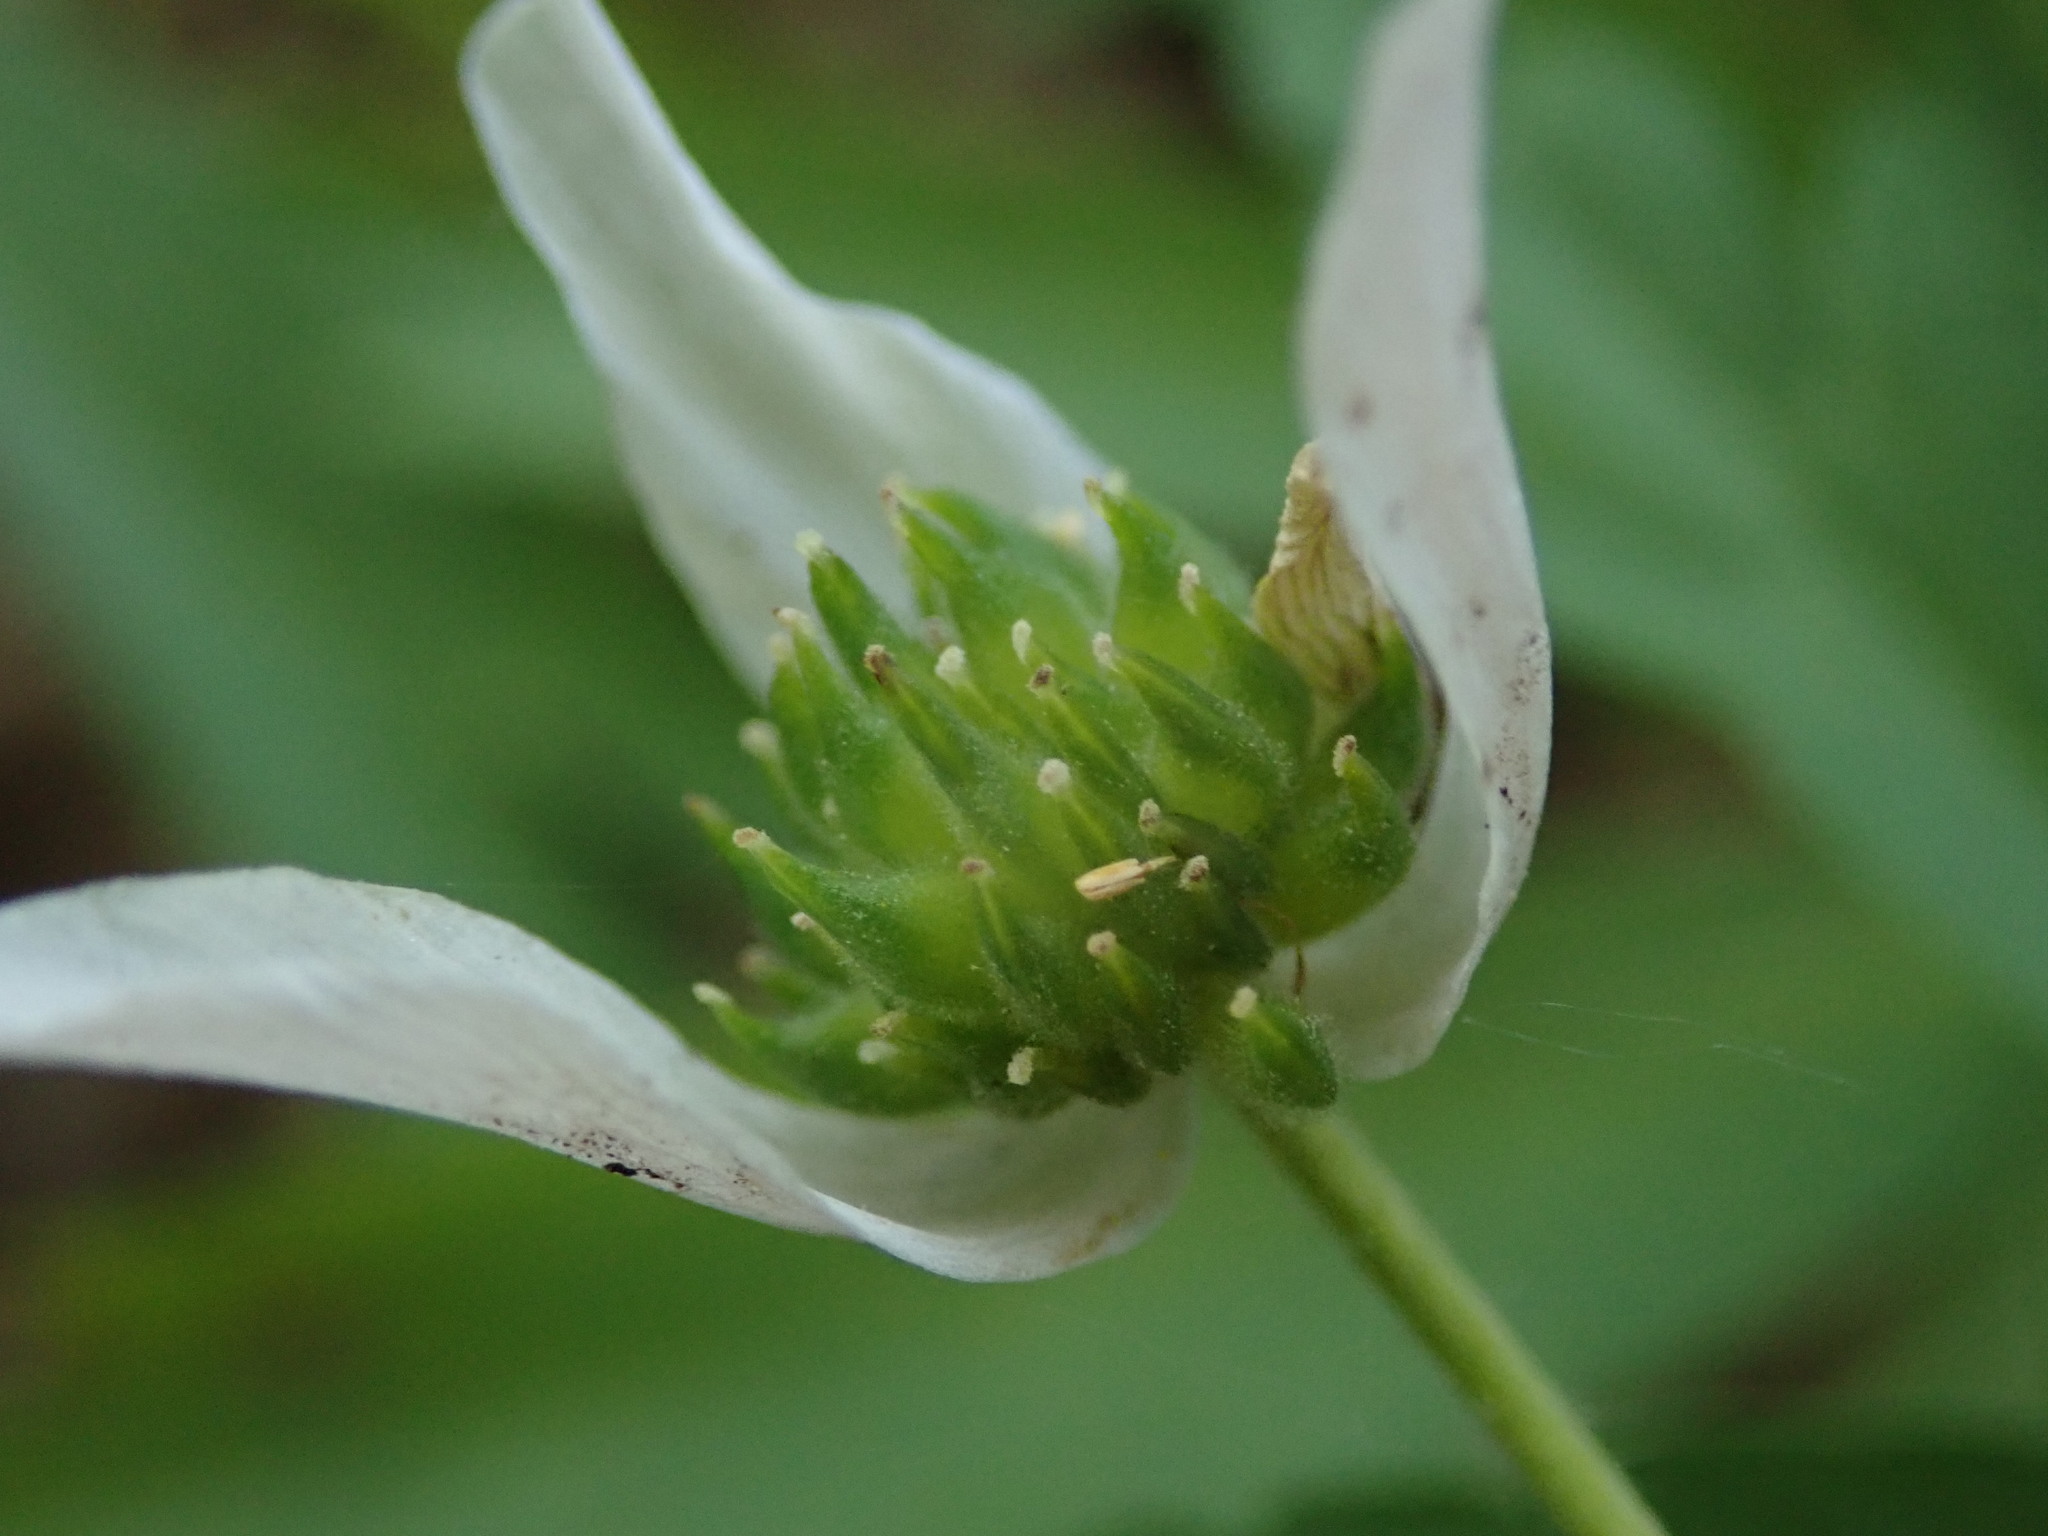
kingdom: Plantae
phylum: Tracheophyta
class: Magnoliopsida
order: Ranunculales
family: Ranunculaceae
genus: Anemone
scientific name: Anemone nemorosa
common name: Wood anemone
